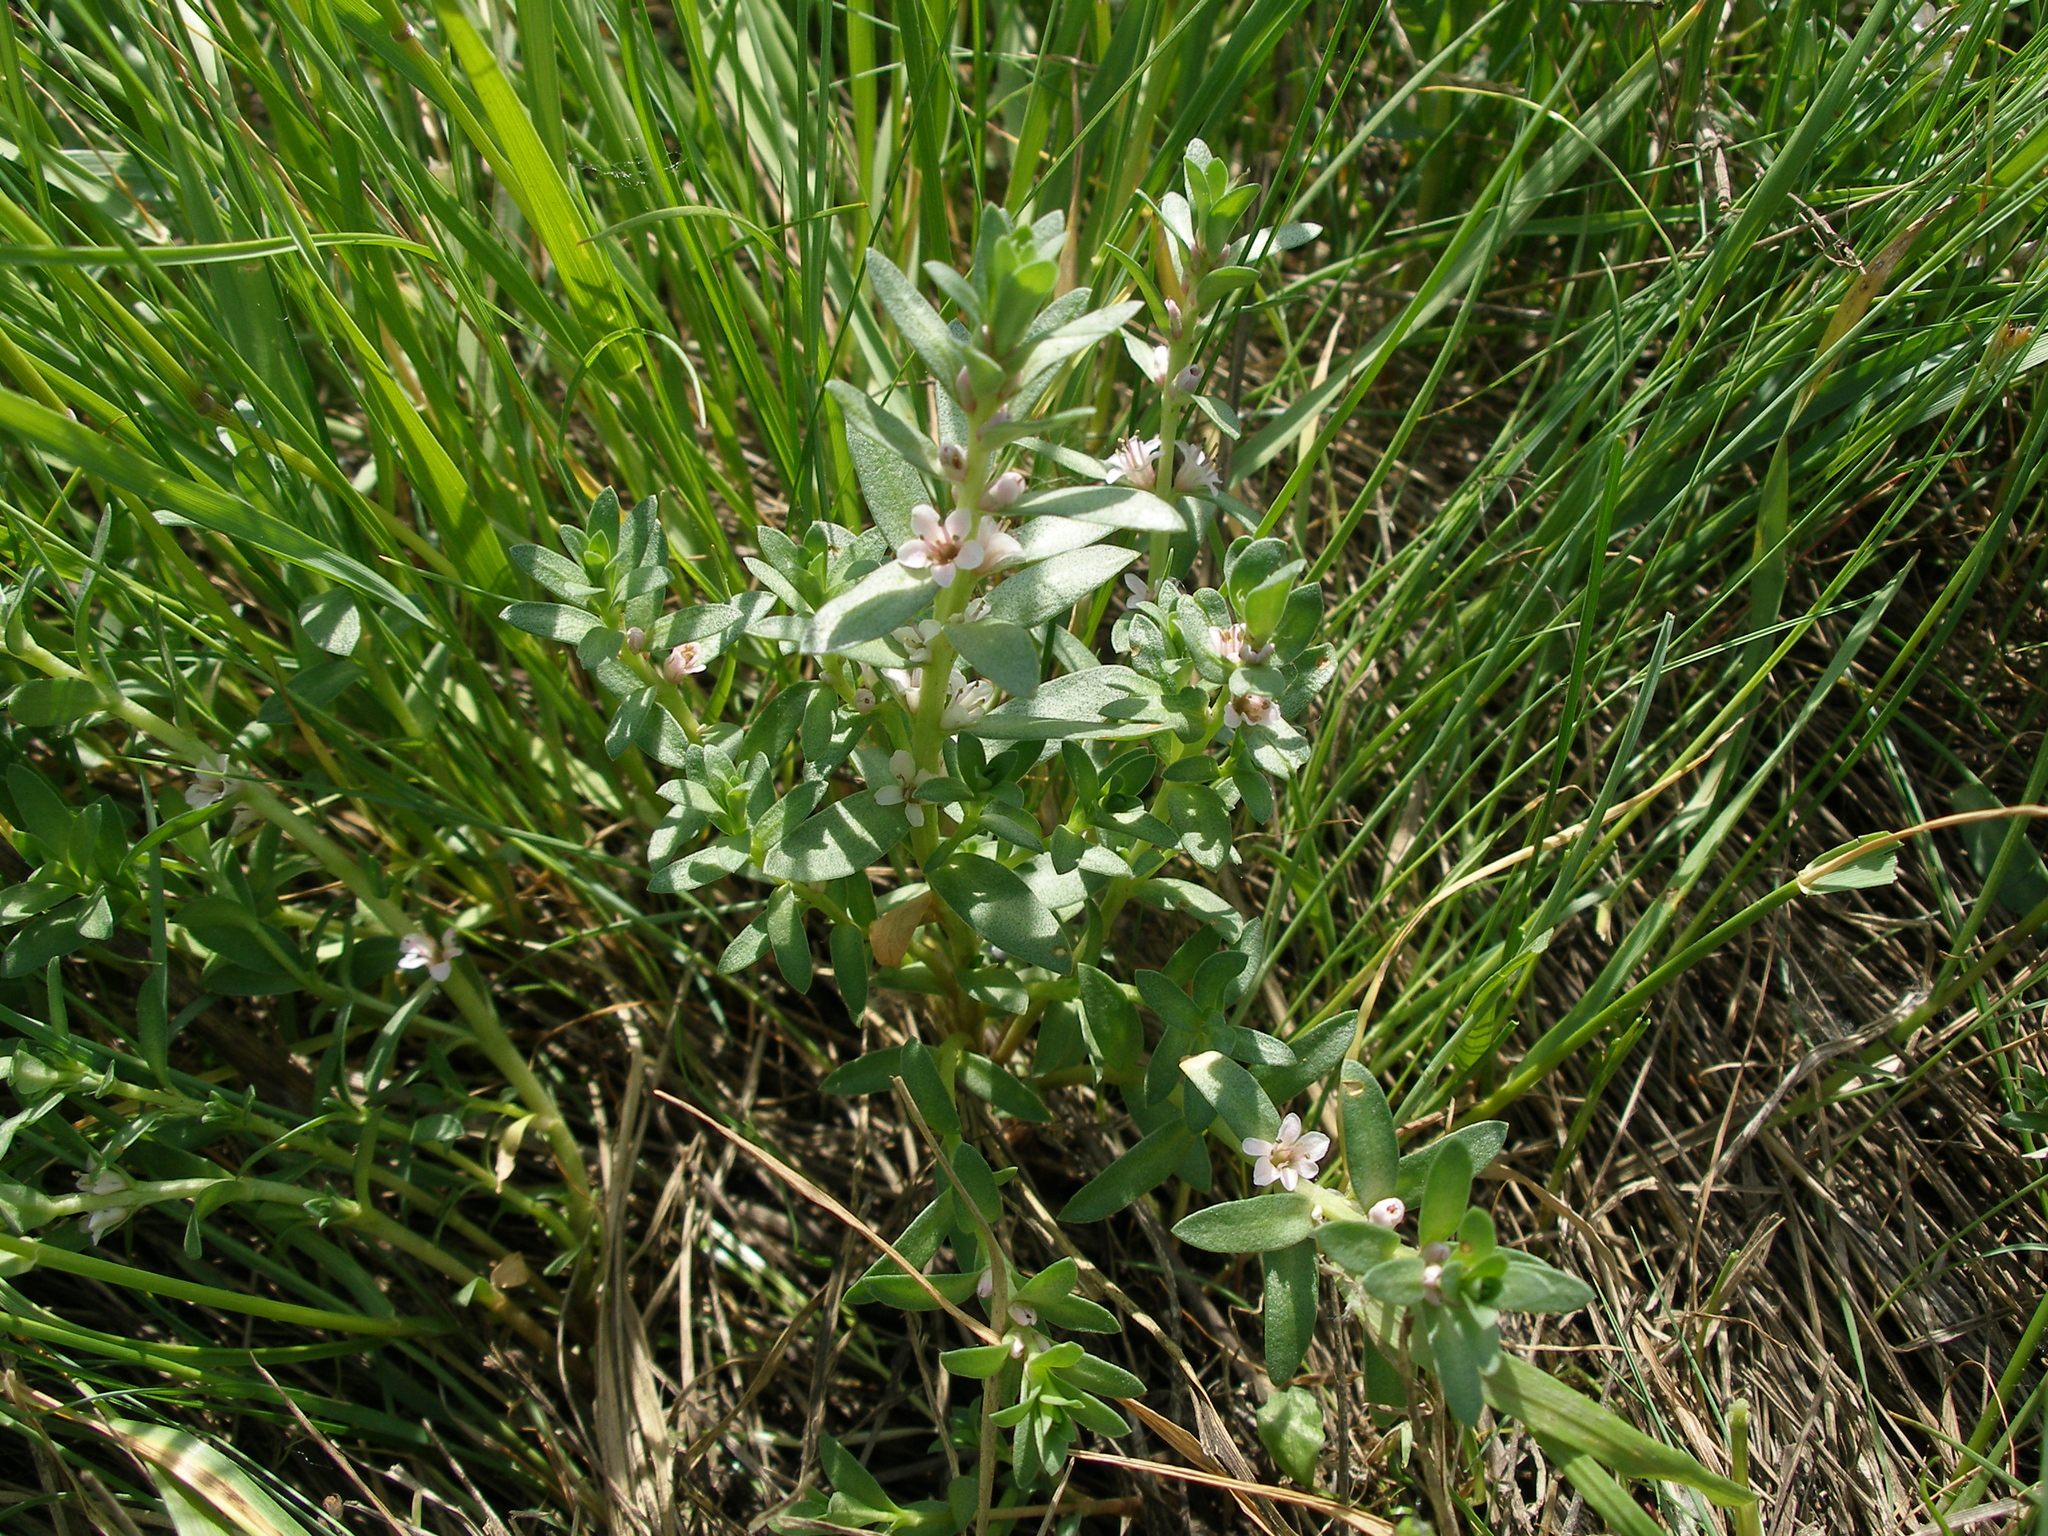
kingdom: Plantae
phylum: Tracheophyta
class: Magnoliopsida
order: Ericales
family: Primulaceae
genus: Lysimachia
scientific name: Lysimachia maritima
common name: Sea milkwort
